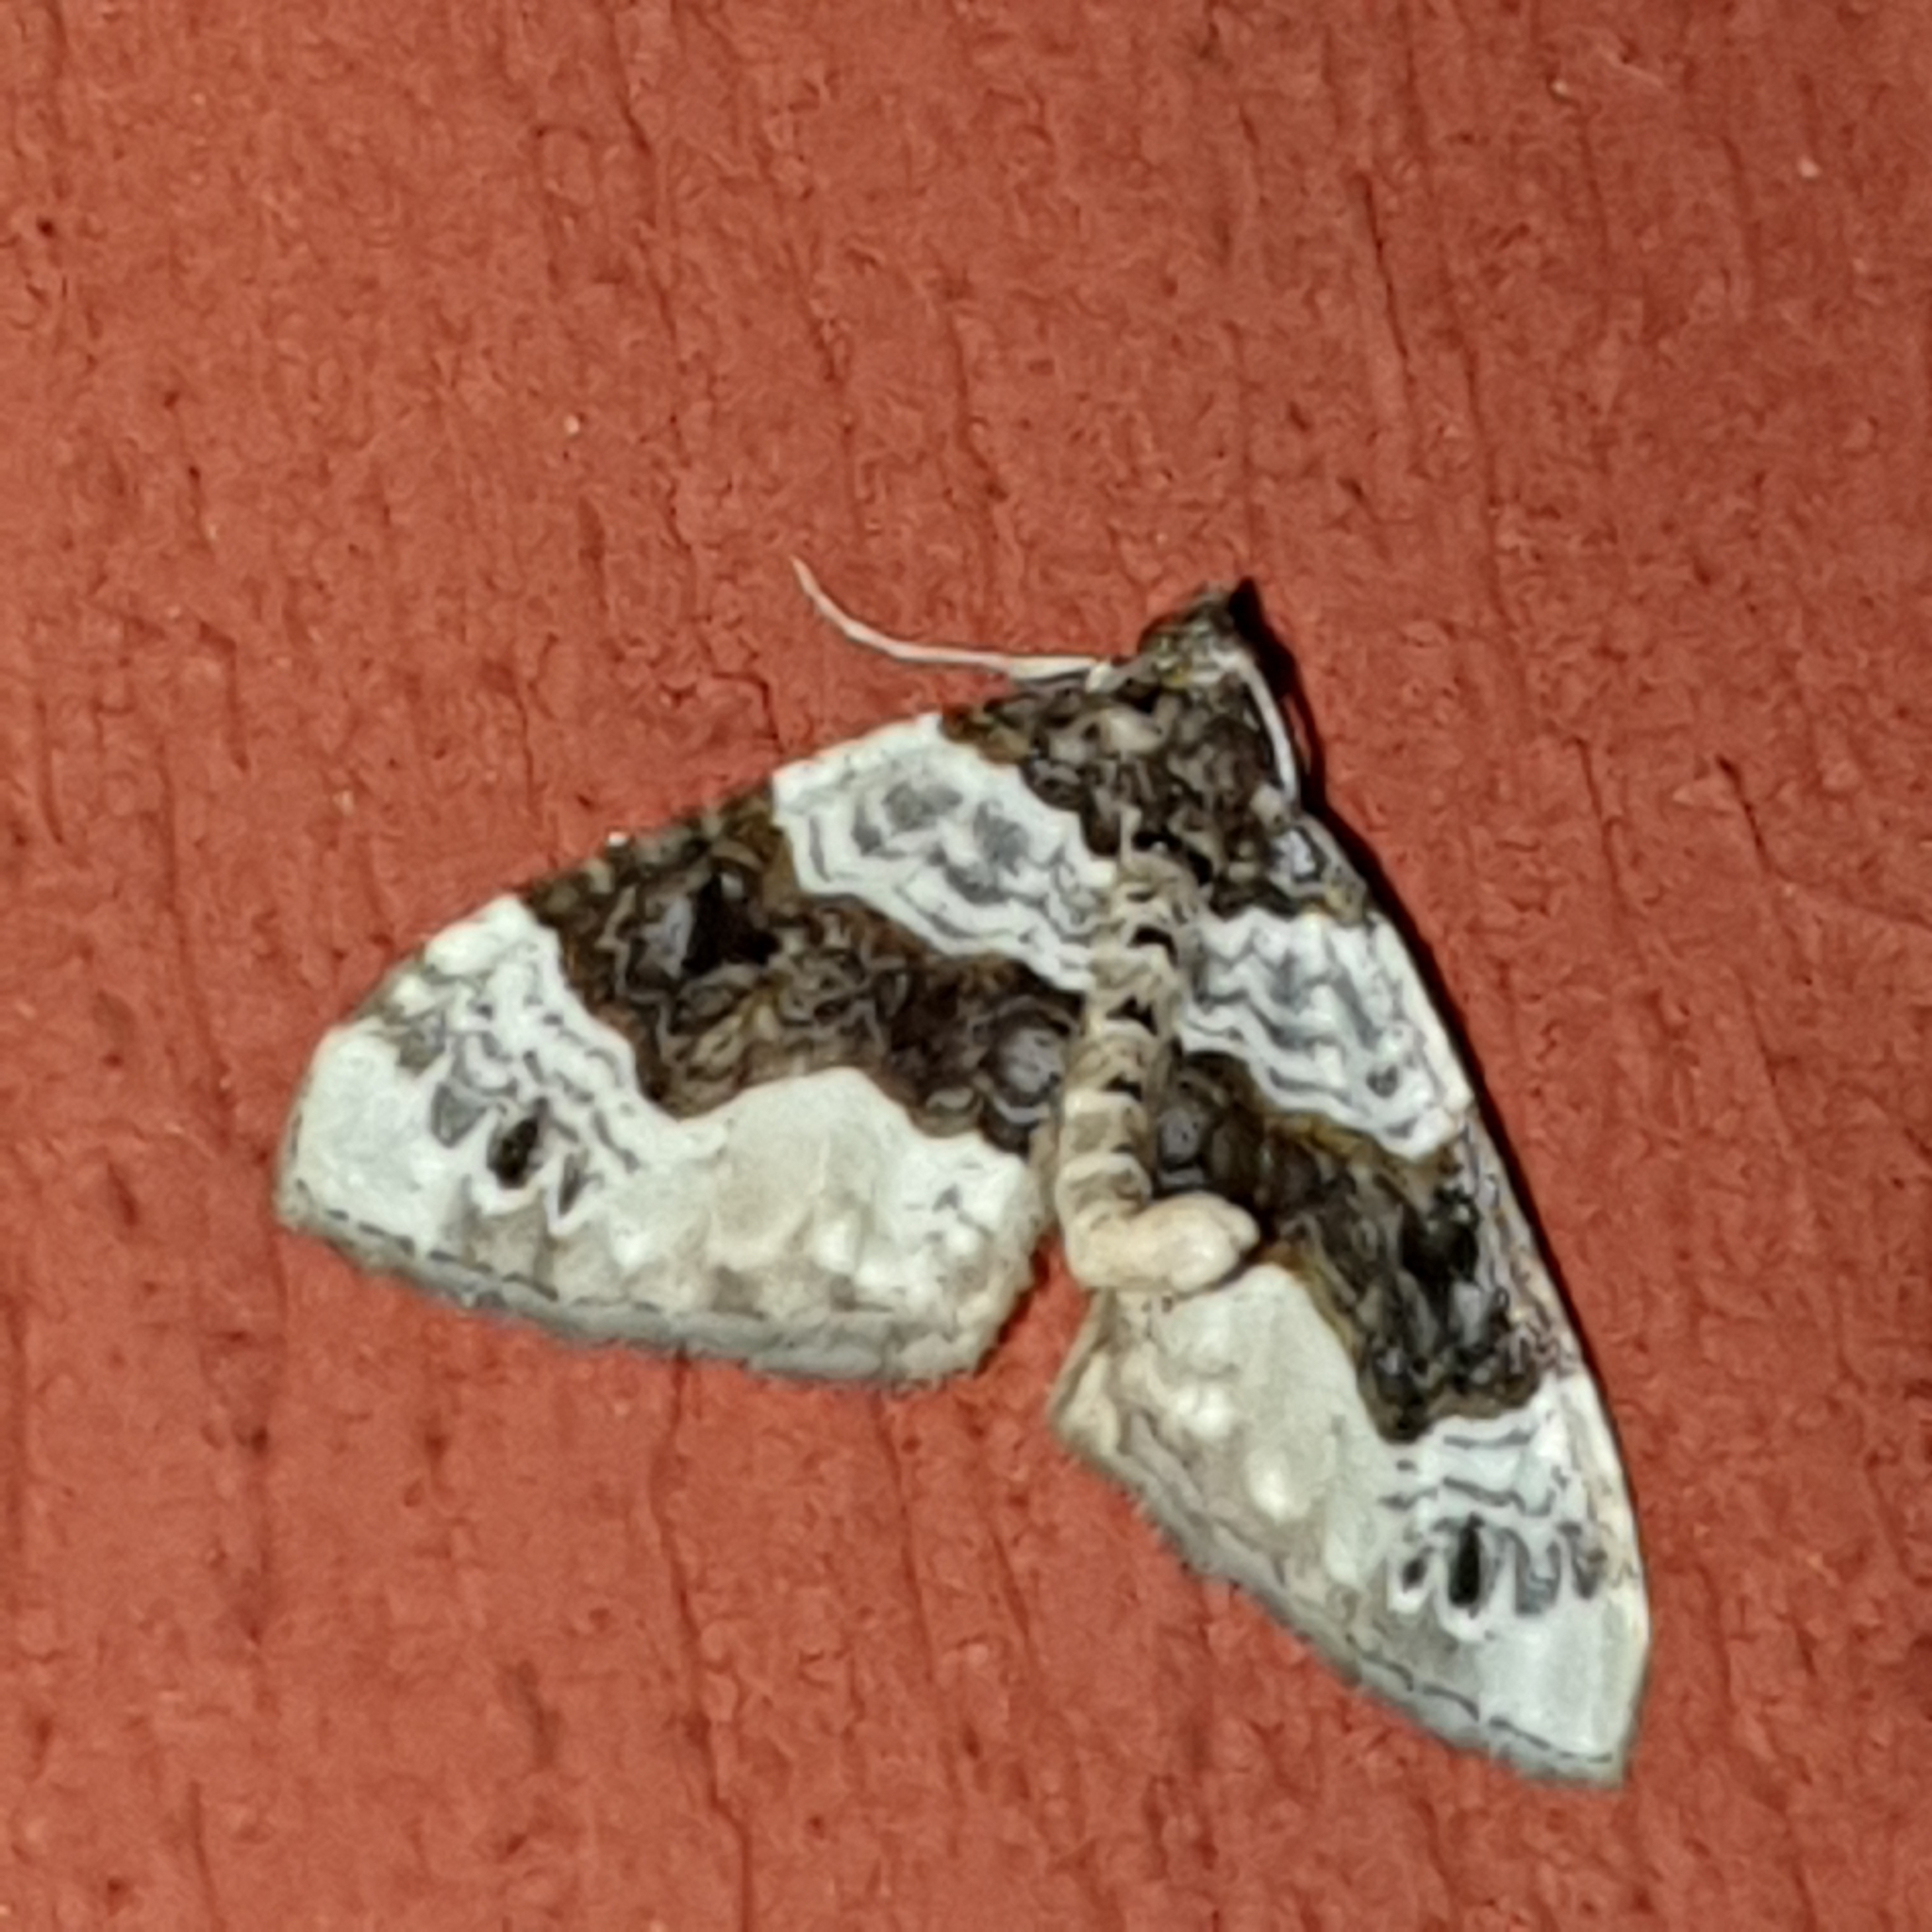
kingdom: Animalia
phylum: Arthropoda
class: Insecta
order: Lepidoptera
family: Geometridae
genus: Cosmorhoe
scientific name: Cosmorhoe ocellata
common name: Purple bar
